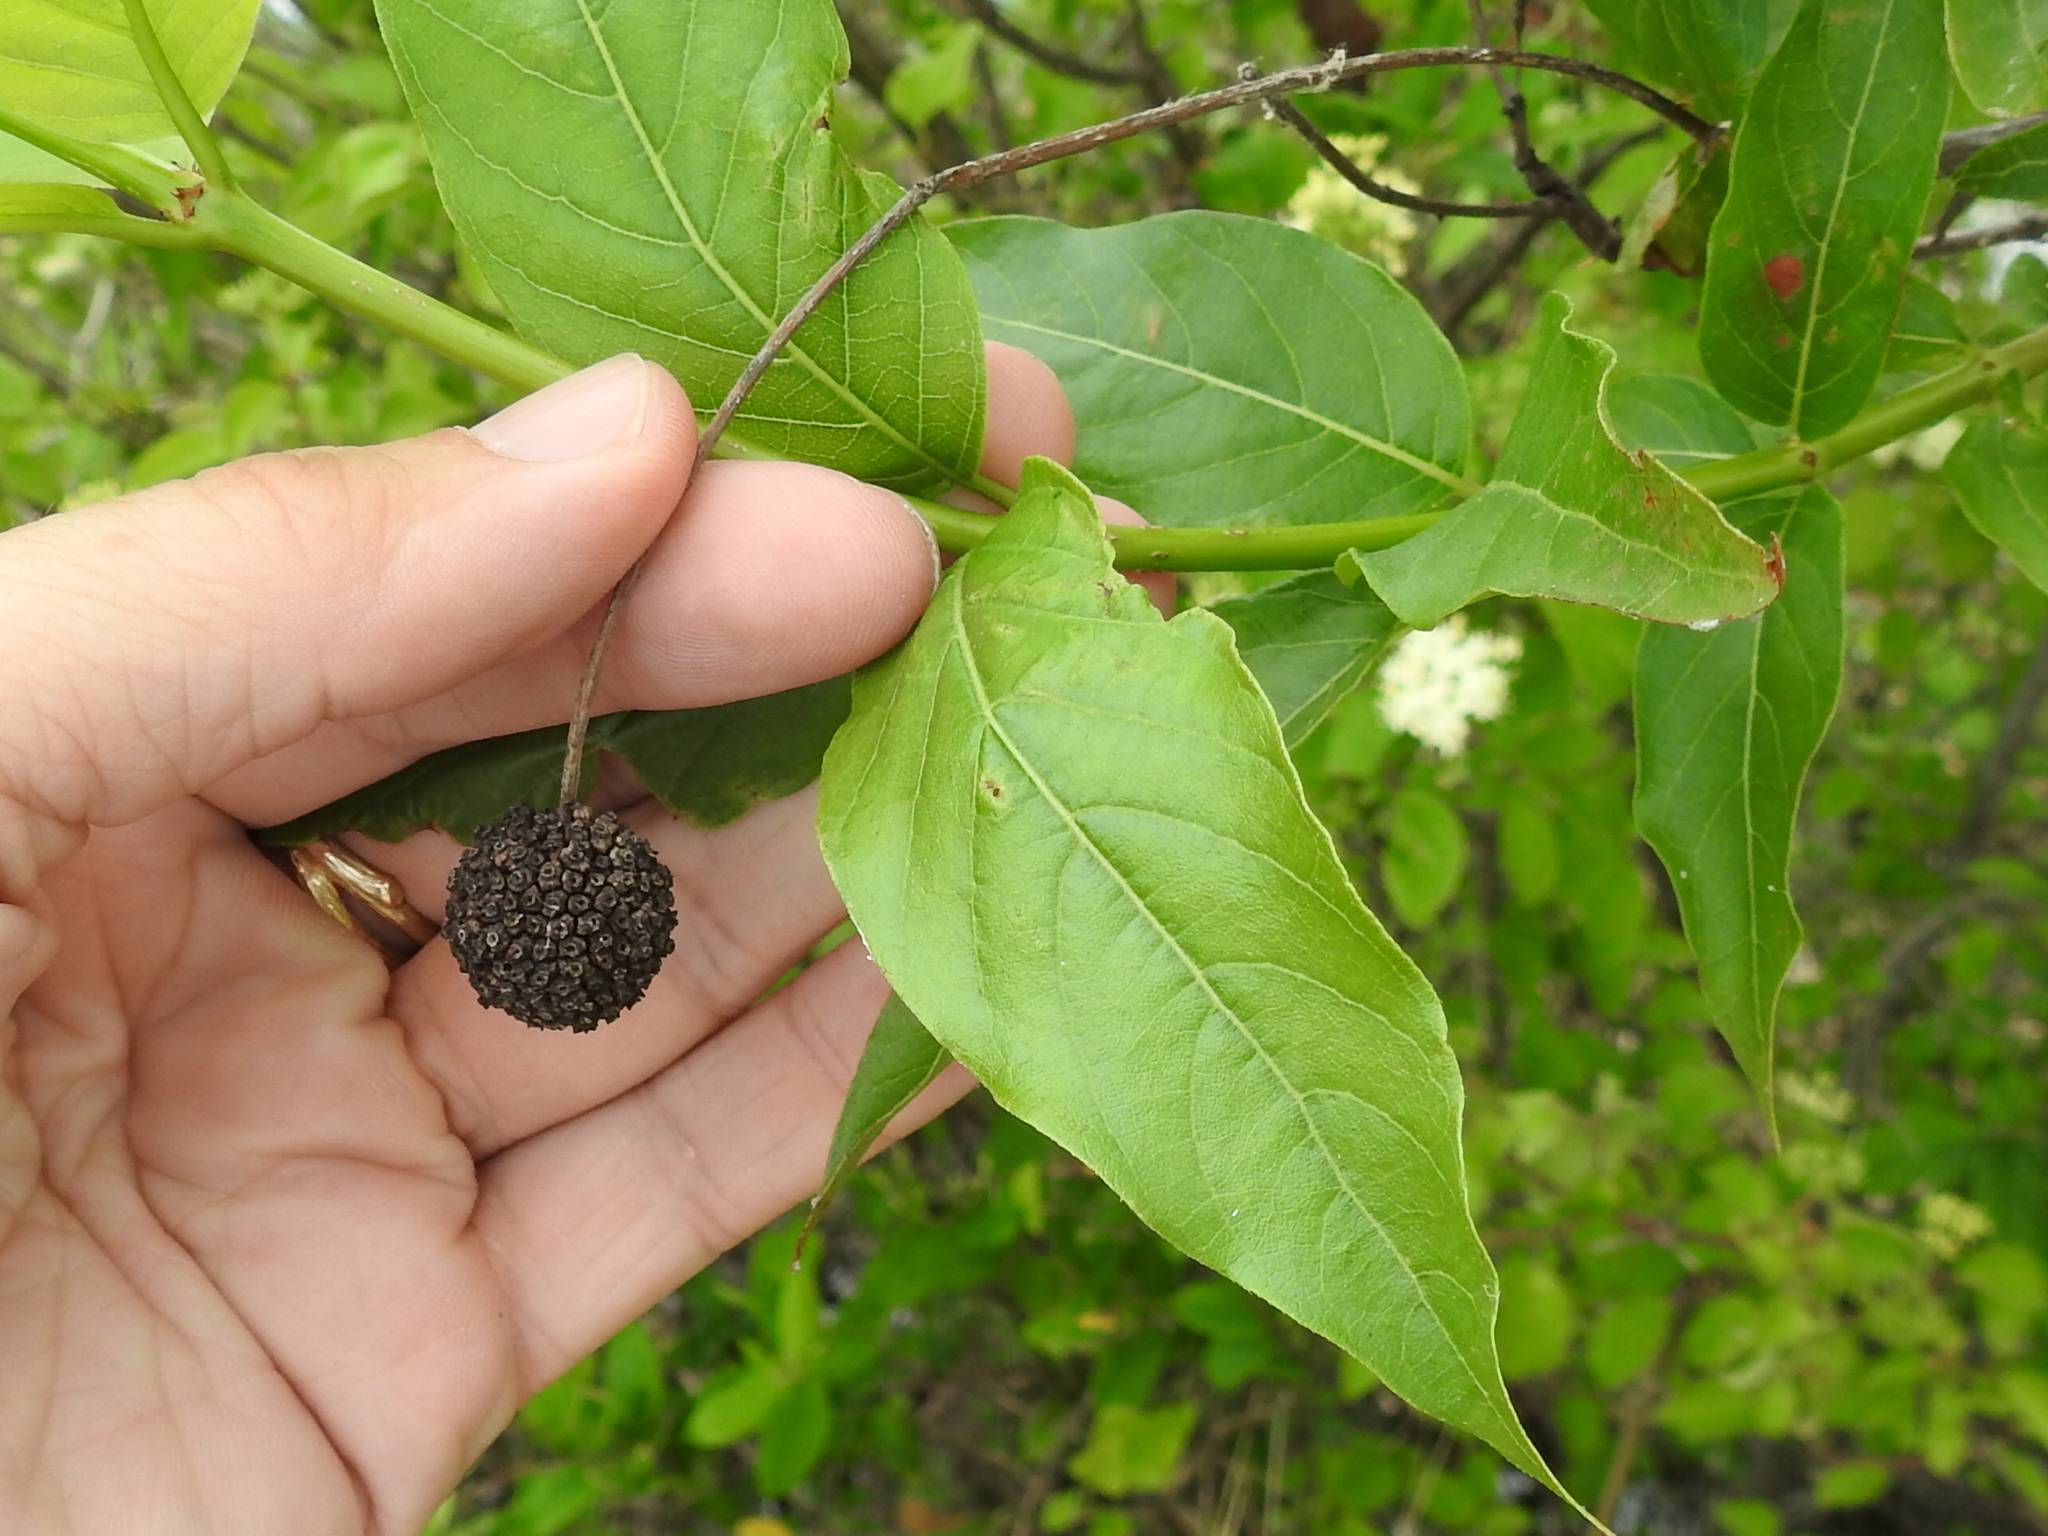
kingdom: Plantae
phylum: Tracheophyta
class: Magnoliopsida
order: Gentianales
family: Rubiaceae
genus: Cephalanthus
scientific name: Cephalanthus occidentalis
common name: Button-willow
